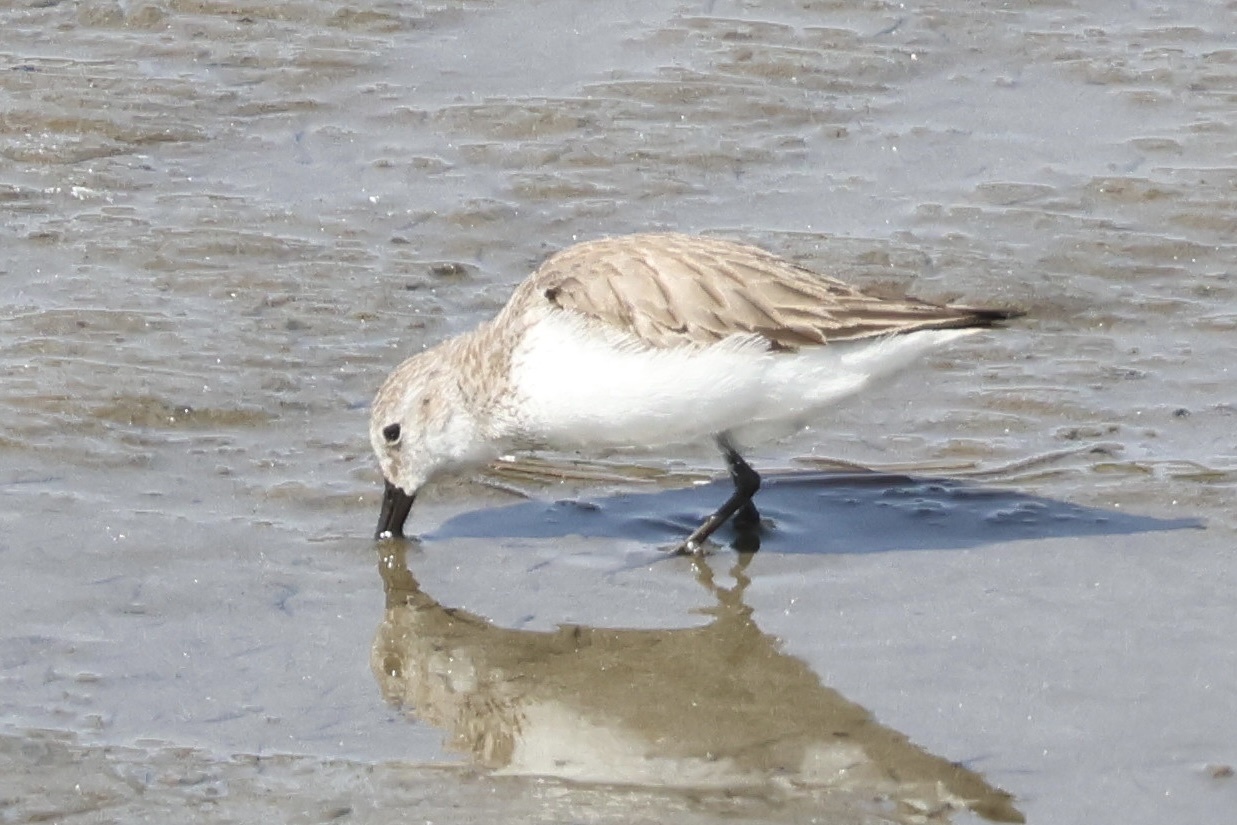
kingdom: Animalia
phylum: Chordata
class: Aves
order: Charadriiformes
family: Scolopacidae
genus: Calidris
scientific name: Calidris mauri
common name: Western sandpiper
